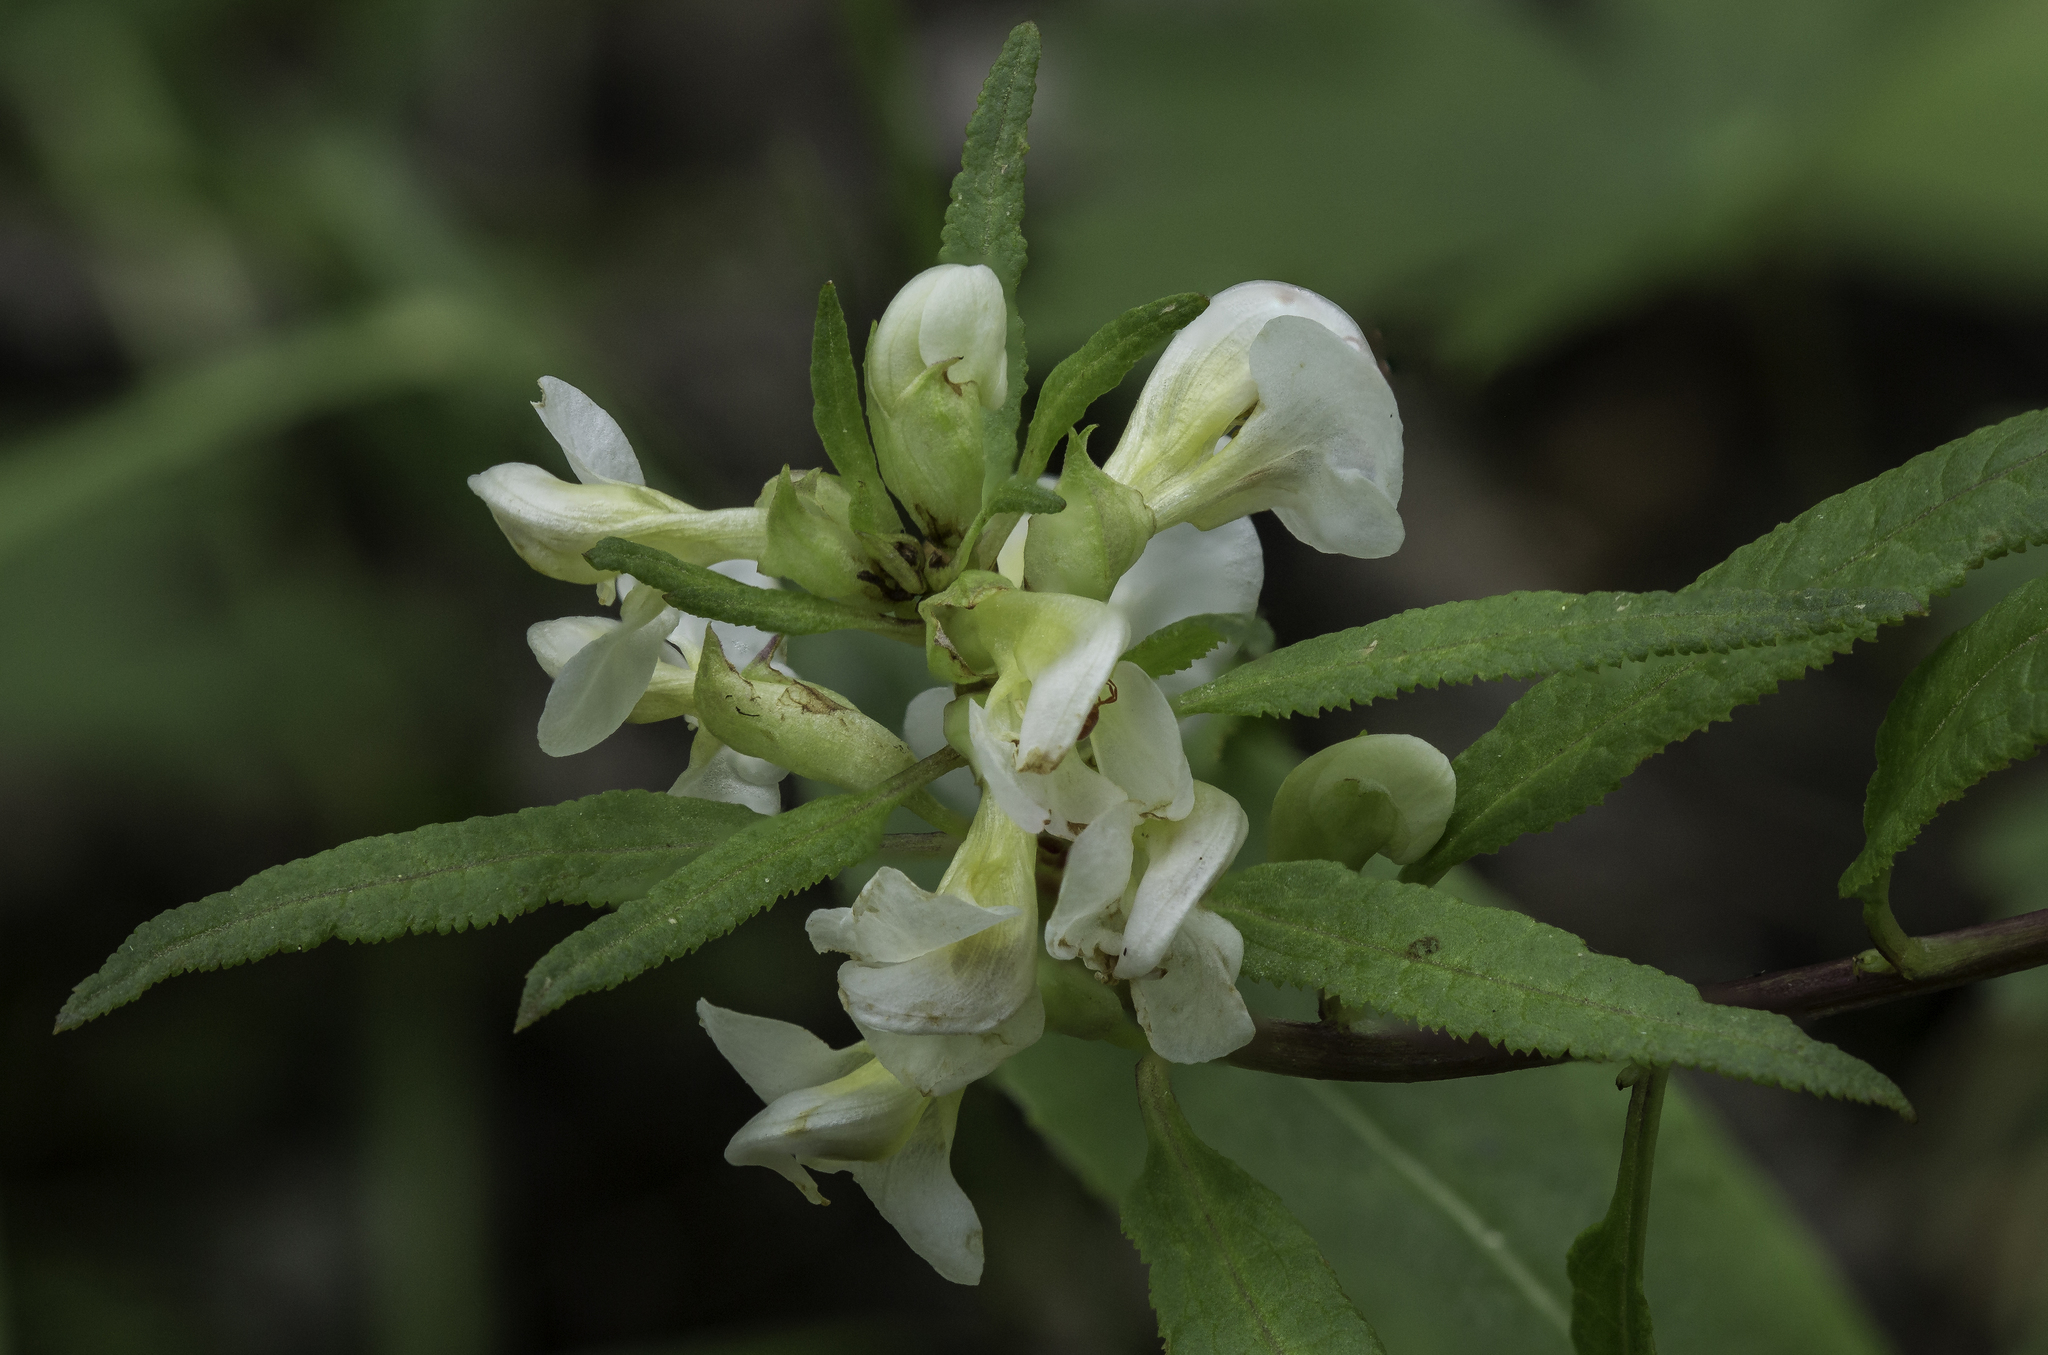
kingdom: Plantae
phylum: Tracheophyta
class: Magnoliopsida
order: Lamiales
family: Orobanchaceae
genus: Pedicularis
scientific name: Pedicularis racemosa
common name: Leafy lousewort
